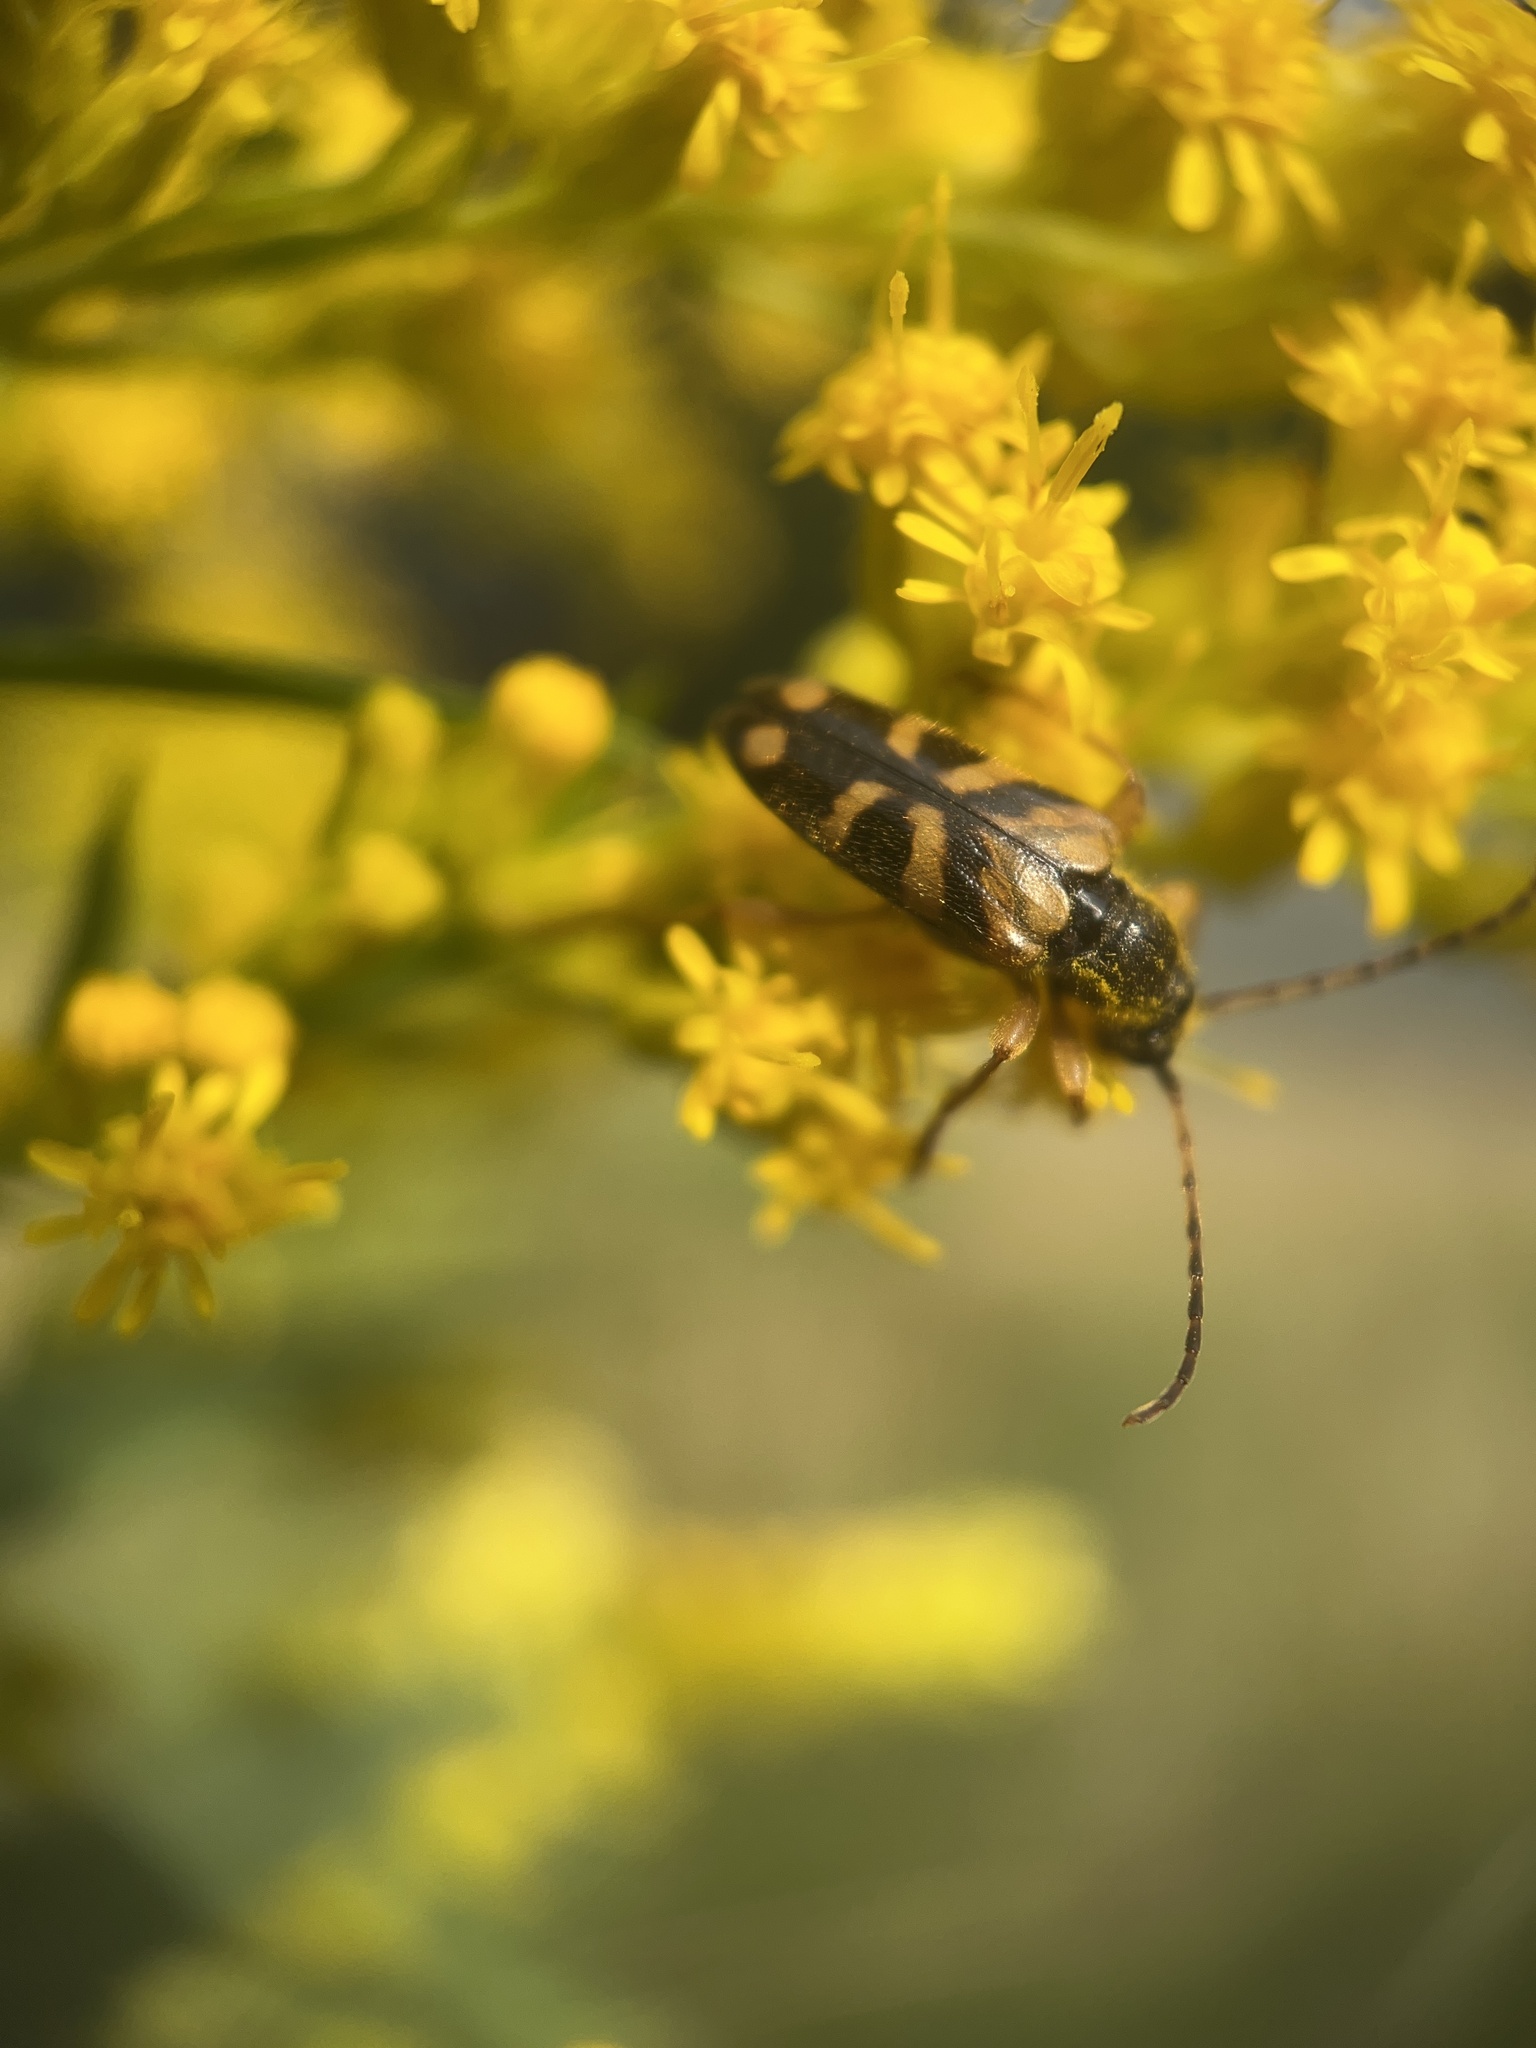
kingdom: Animalia
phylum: Arthropoda
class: Insecta
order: Coleoptera
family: Cerambycidae
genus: Xestoleptura
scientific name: Xestoleptura crassipes
